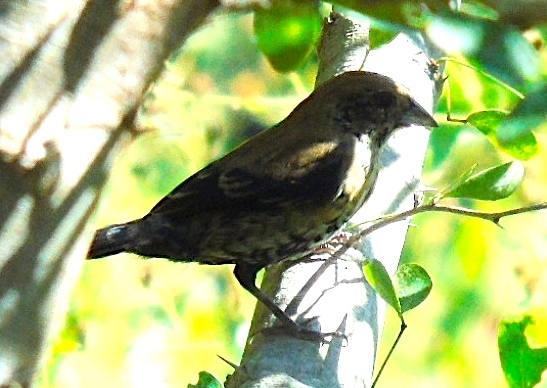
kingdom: Animalia
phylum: Chordata
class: Aves
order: Passeriformes
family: Thraupidae
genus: Volatinia
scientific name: Volatinia jacarina
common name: Blue-black grassquit
